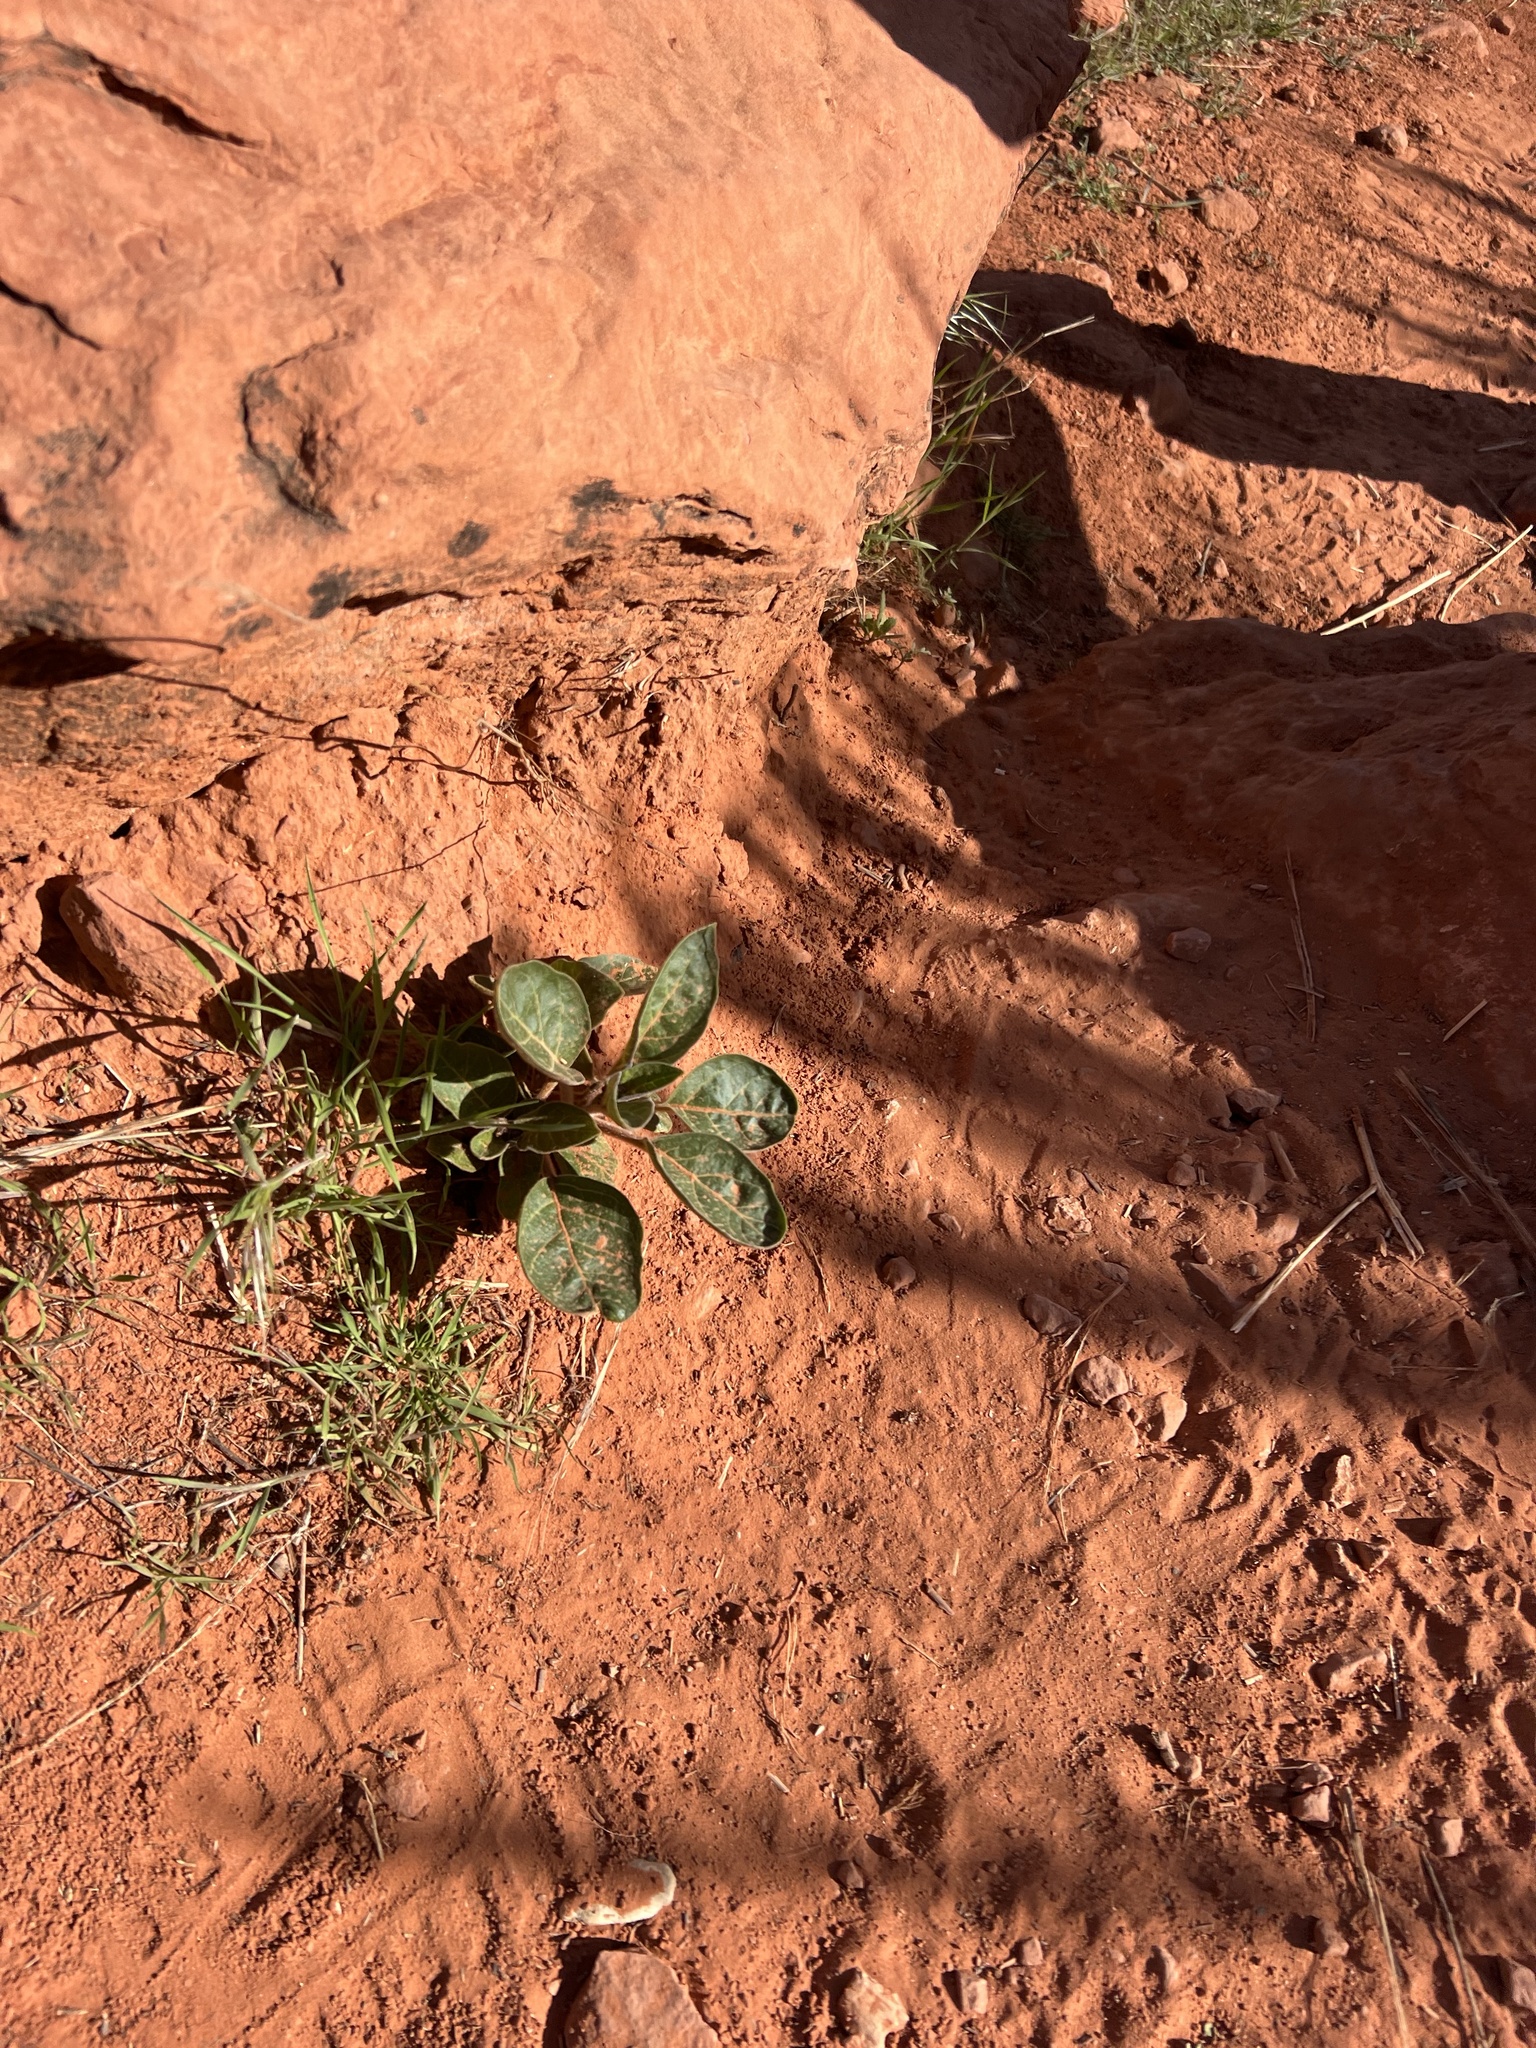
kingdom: Plantae
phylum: Tracheophyta
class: Magnoliopsida
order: Solanales
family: Solanaceae
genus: Datura
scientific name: Datura wrightii
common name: Sacred thorn-apple
